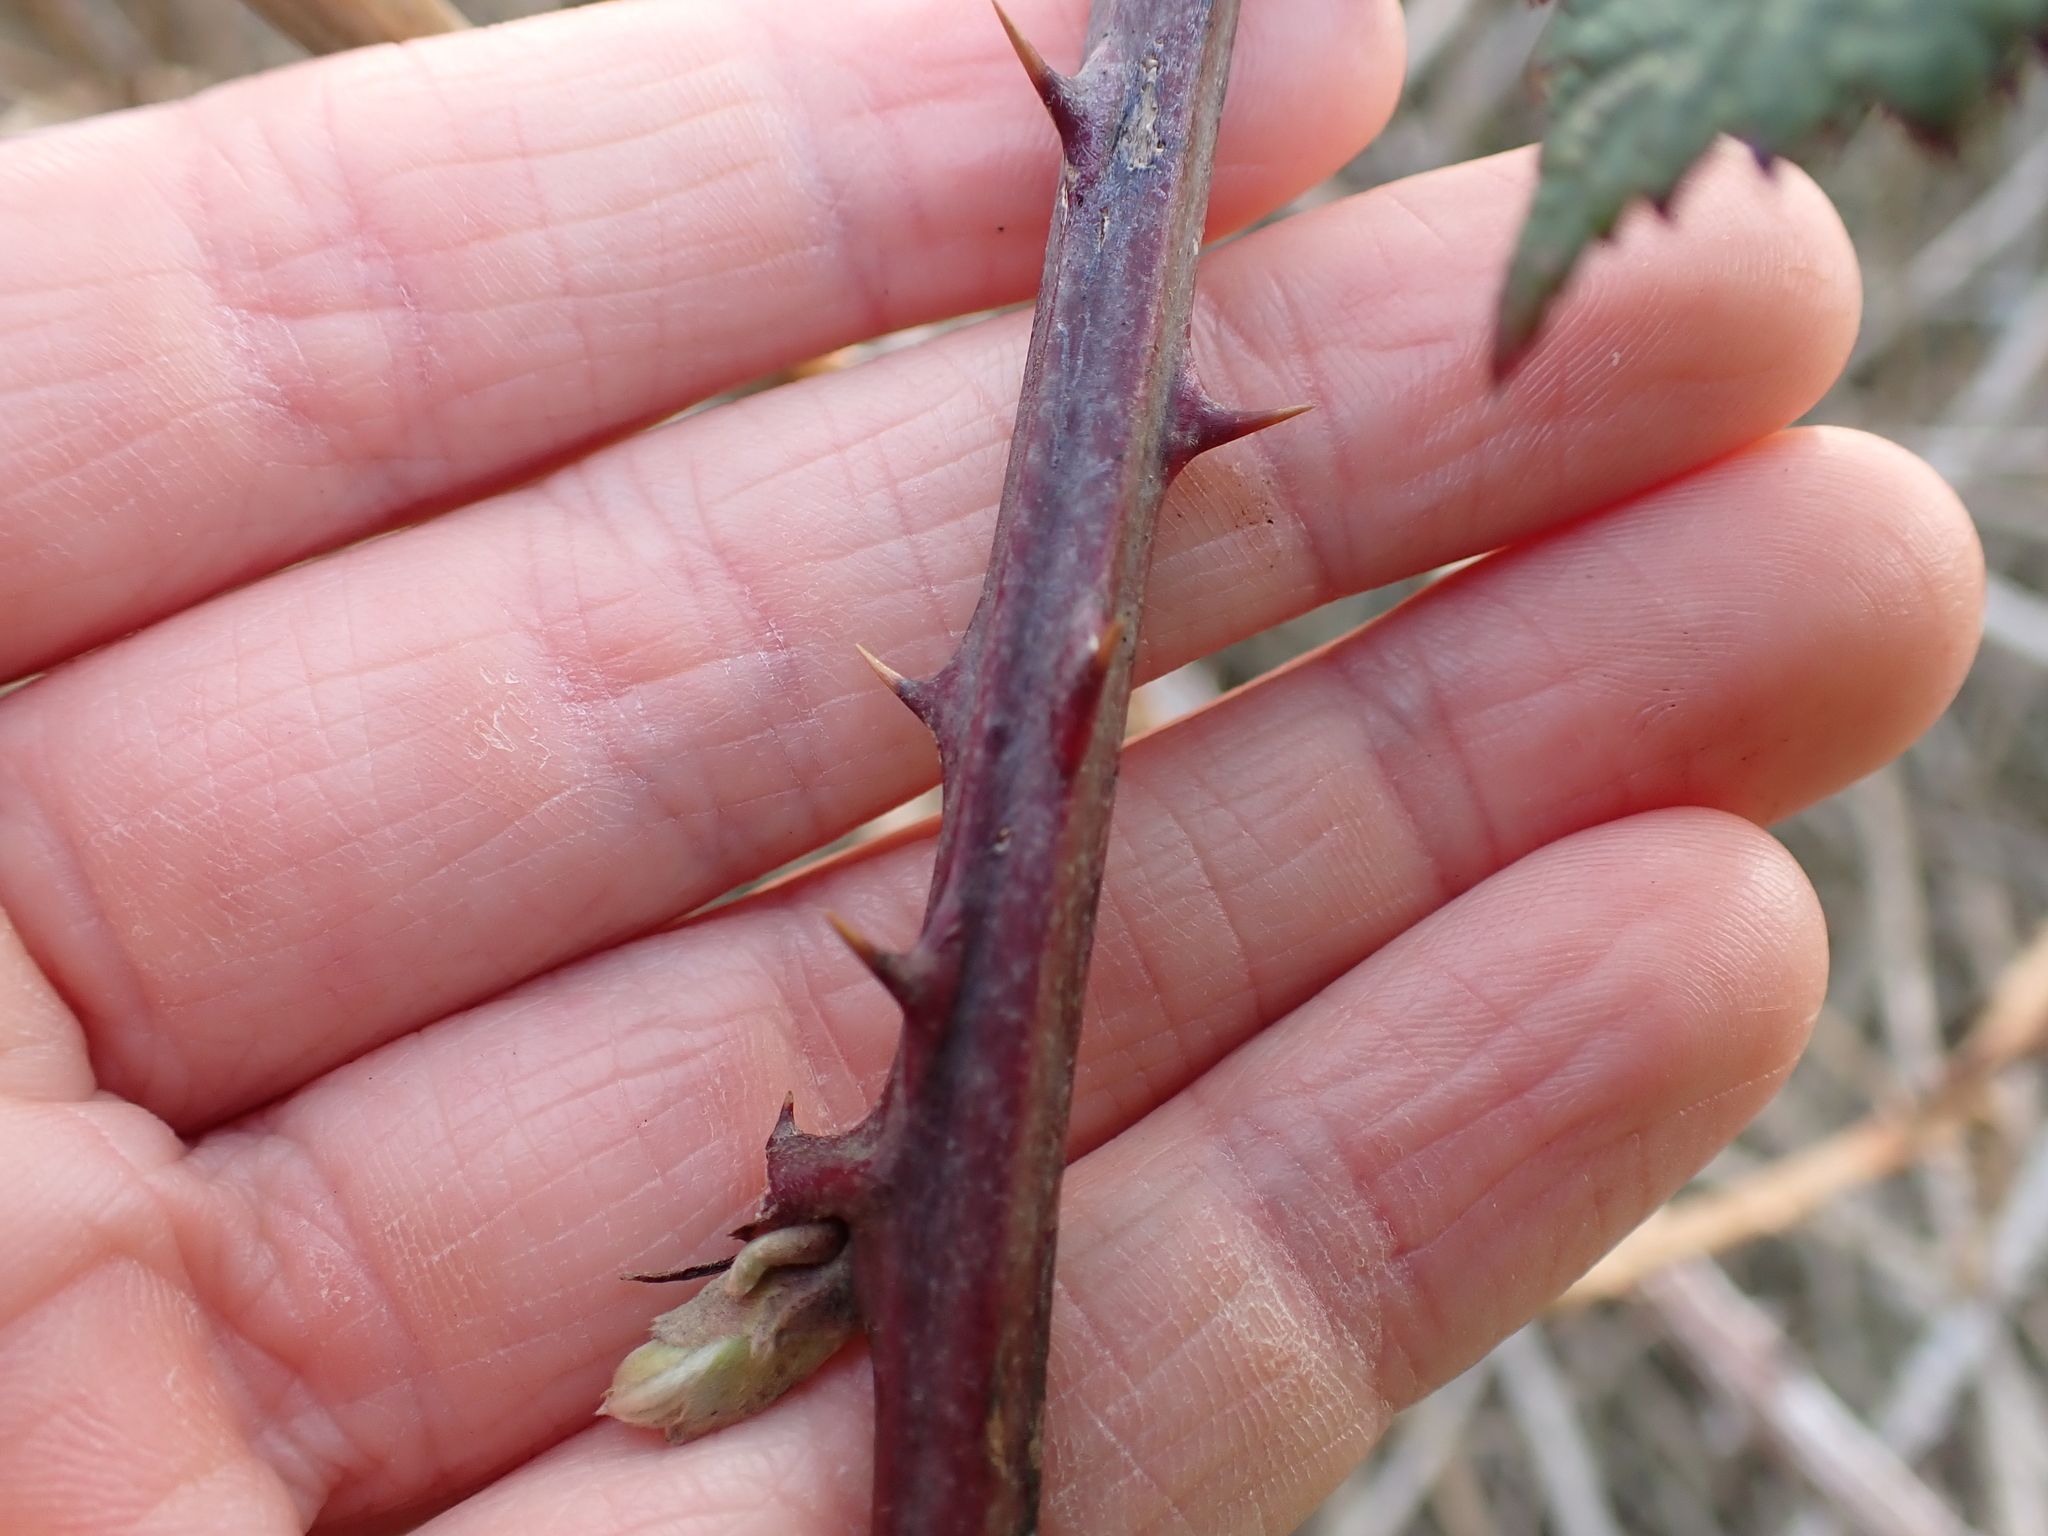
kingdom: Plantae
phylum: Tracheophyta
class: Magnoliopsida
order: Rosales
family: Rosaceae
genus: Rubus
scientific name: Rubus bifrons
